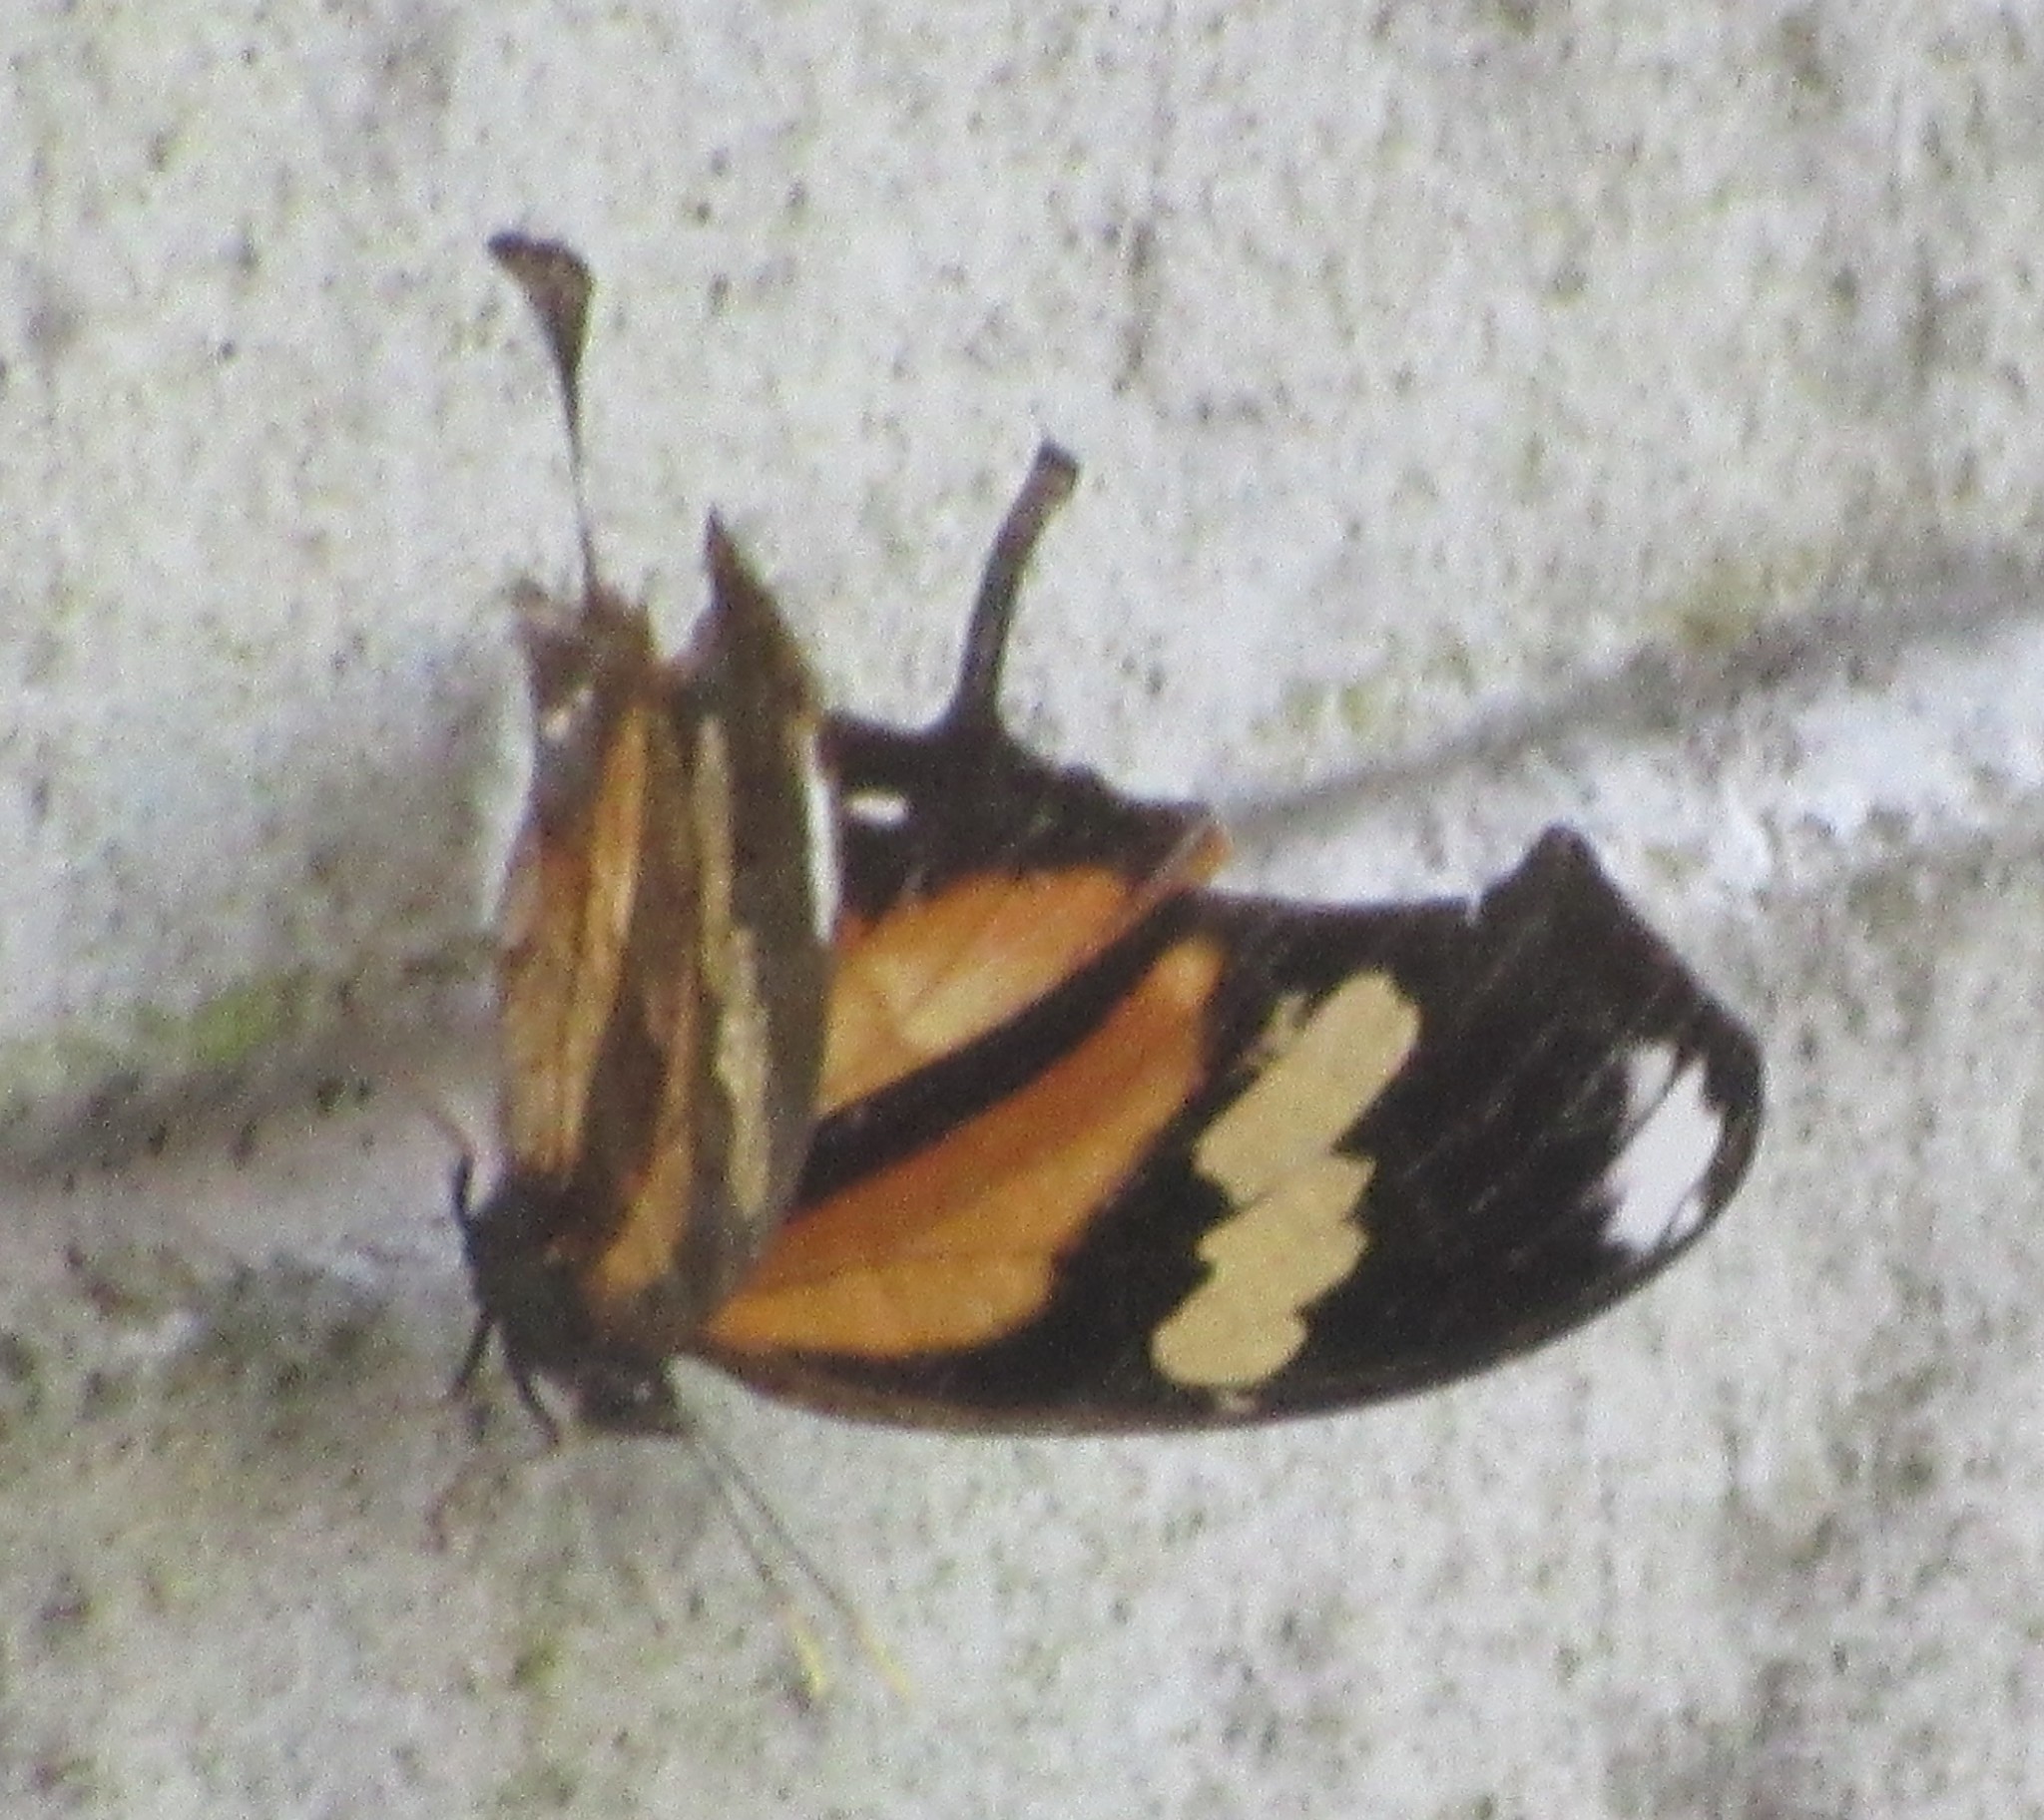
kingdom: Animalia
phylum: Arthropoda
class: Insecta
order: Lepidoptera
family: Nymphalidae
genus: Consul
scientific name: Consul fabius
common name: Tiger leafwing
